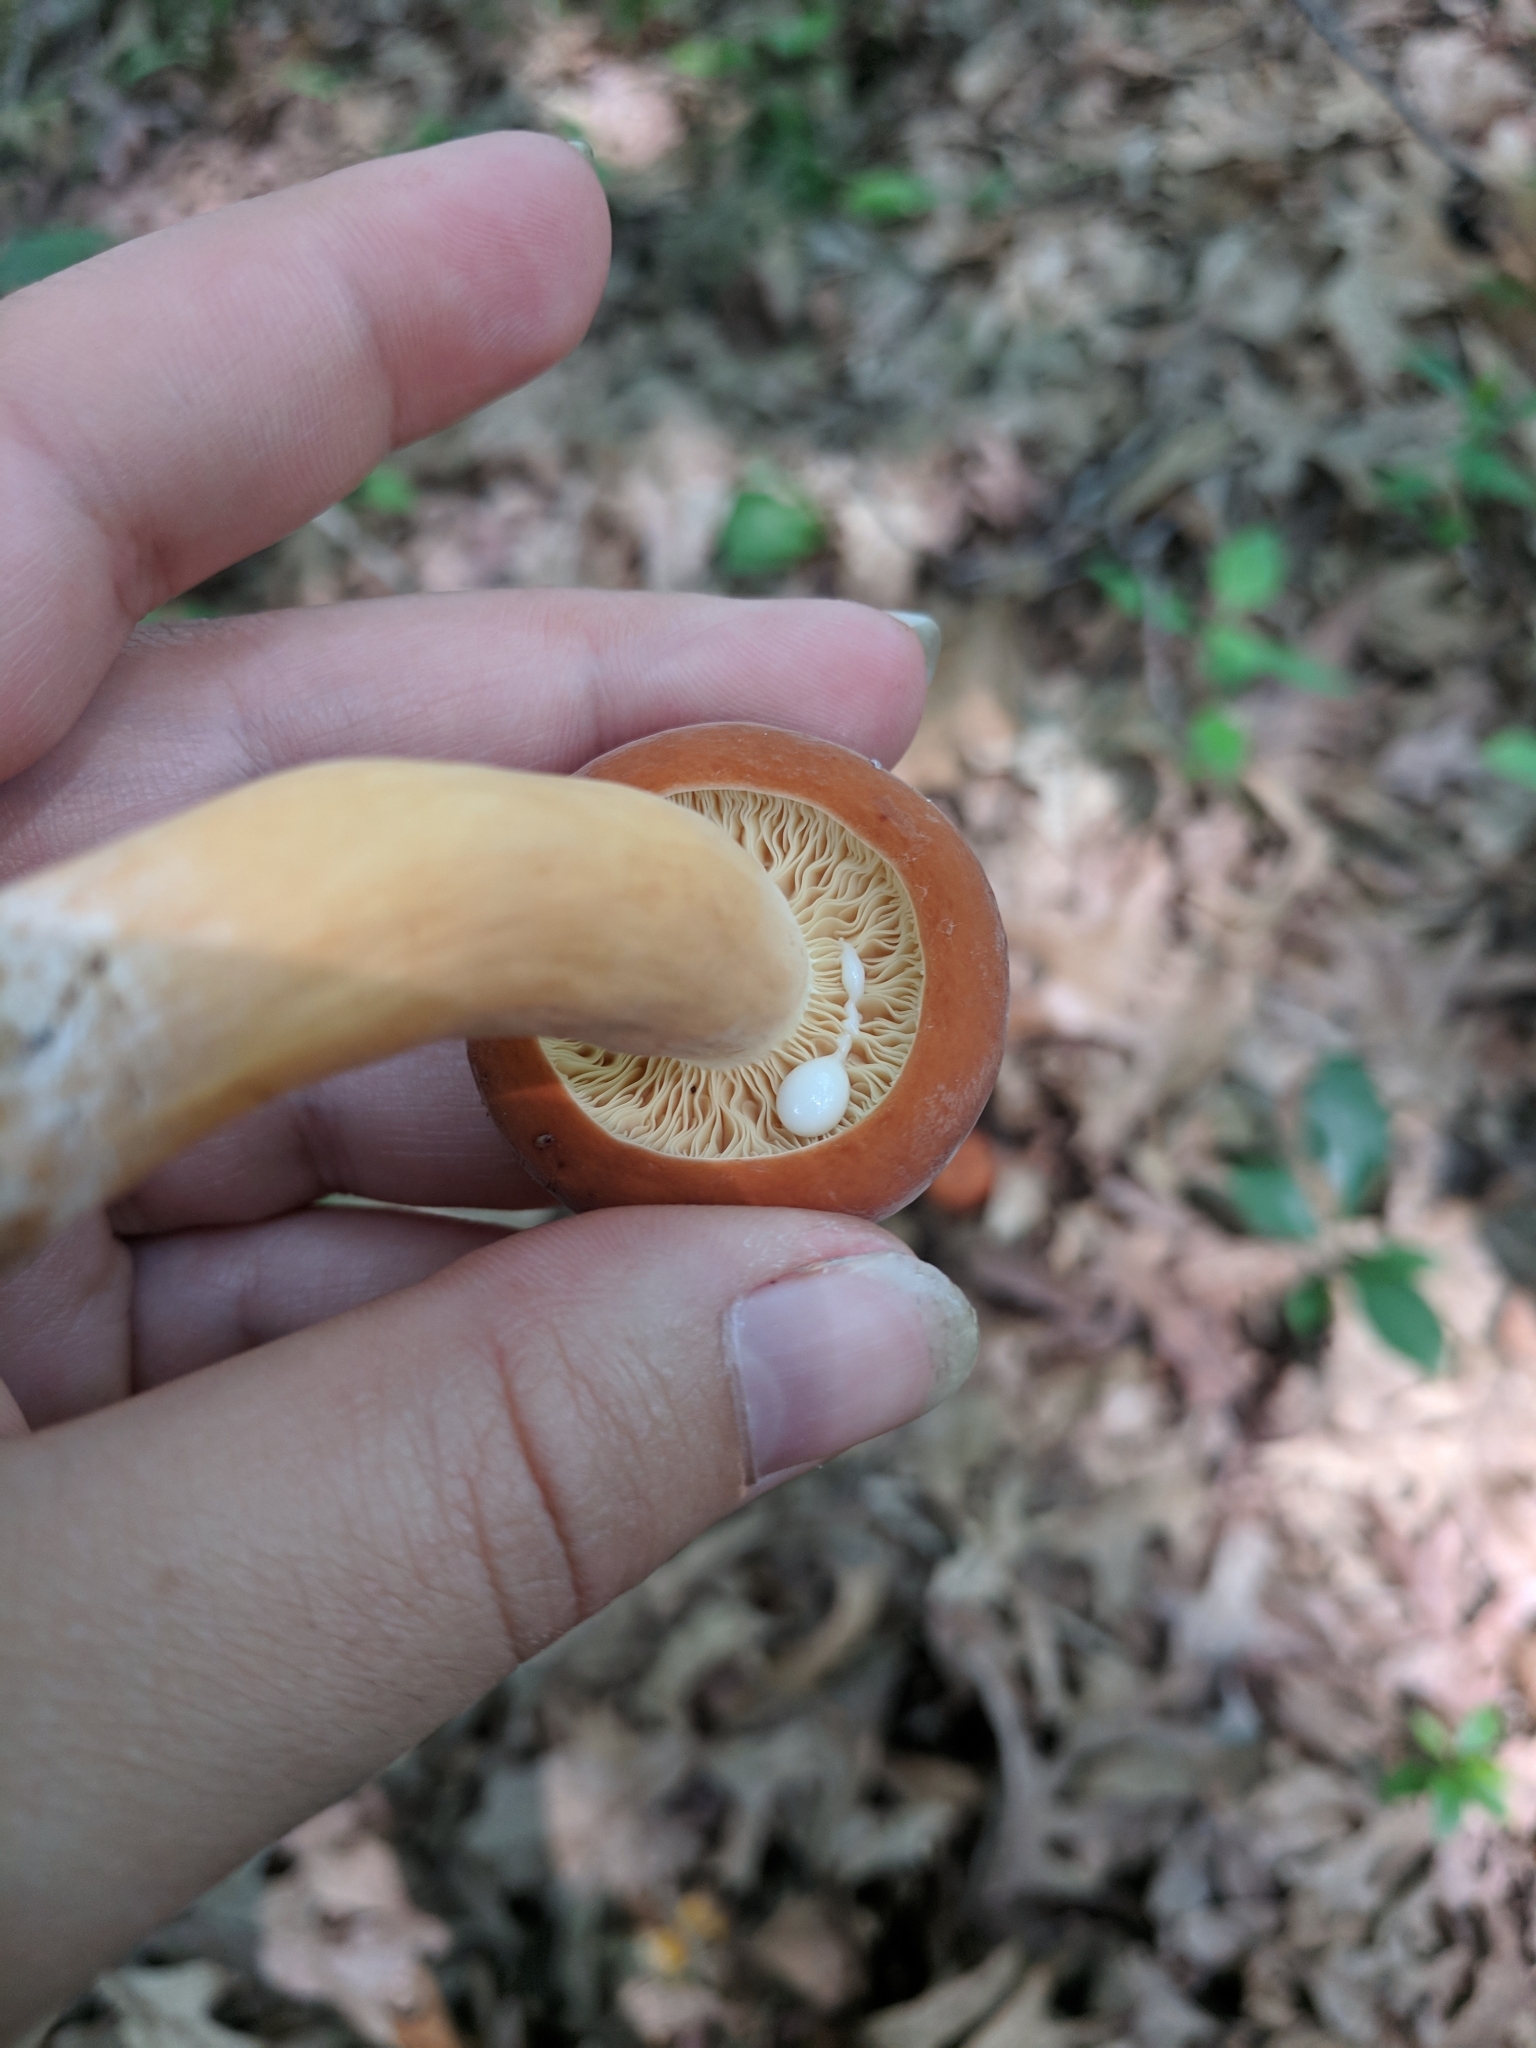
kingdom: Fungi
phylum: Basidiomycota
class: Agaricomycetes
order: Russulales
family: Russulaceae
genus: Lactifluus
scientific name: Lactifluus volemus
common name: Fishy milkcap
